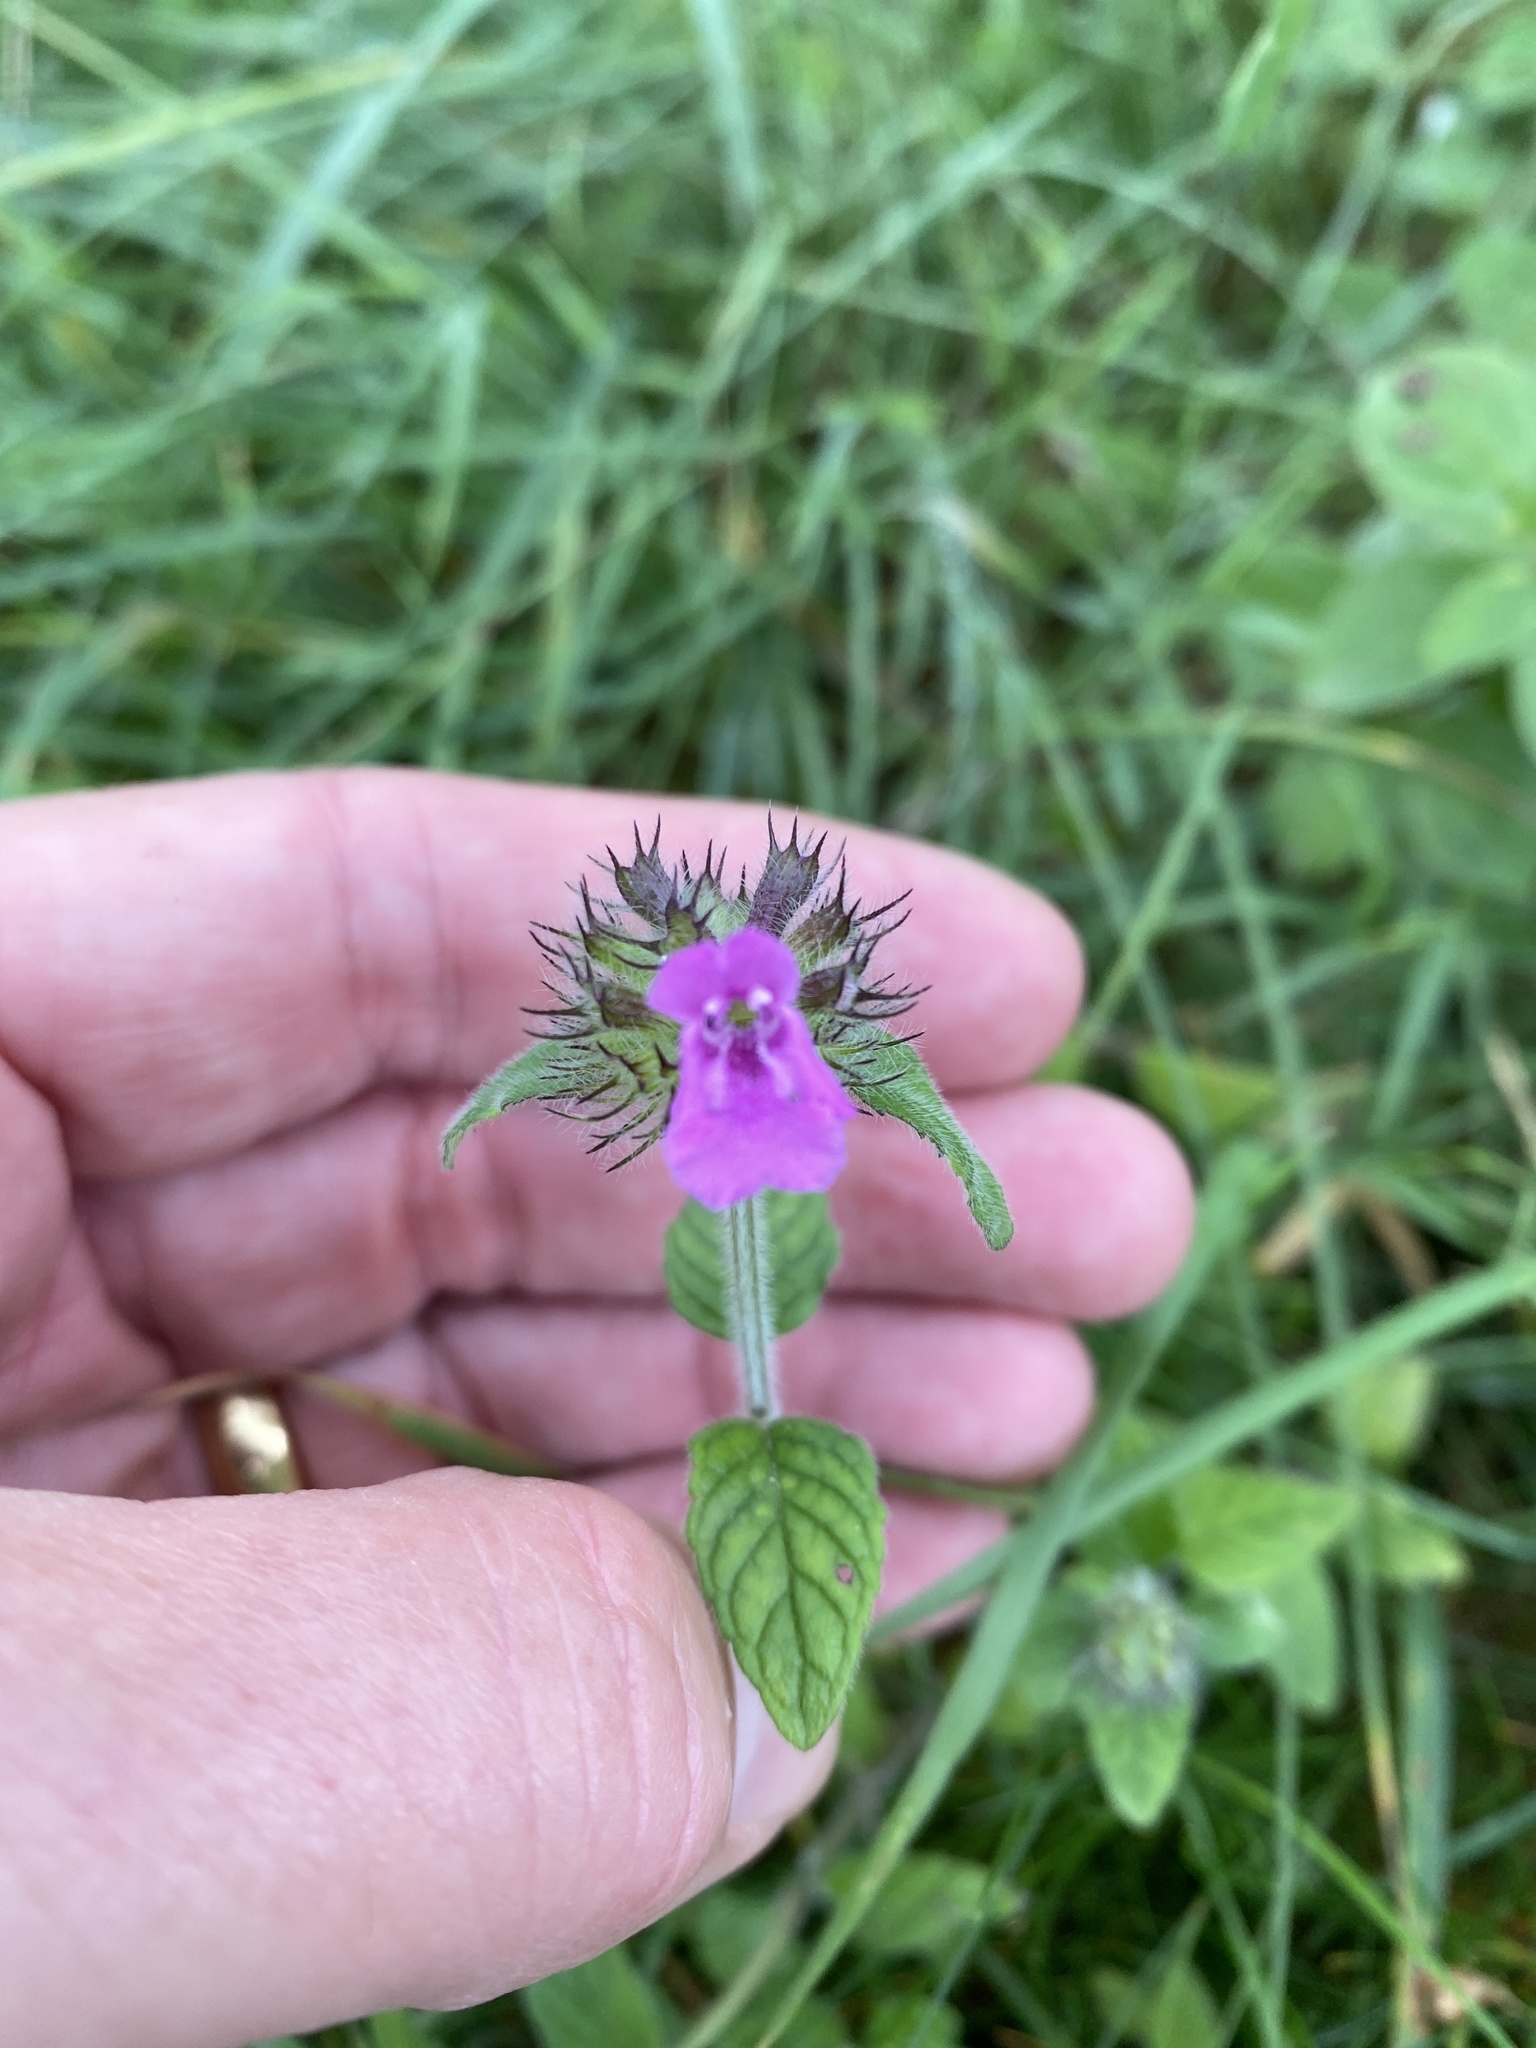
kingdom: Plantae
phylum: Tracheophyta
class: Magnoliopsida
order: Lamiales
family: Lamiaceae
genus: Clinopodium
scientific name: Clinopodium vulgare
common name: Wild basil
